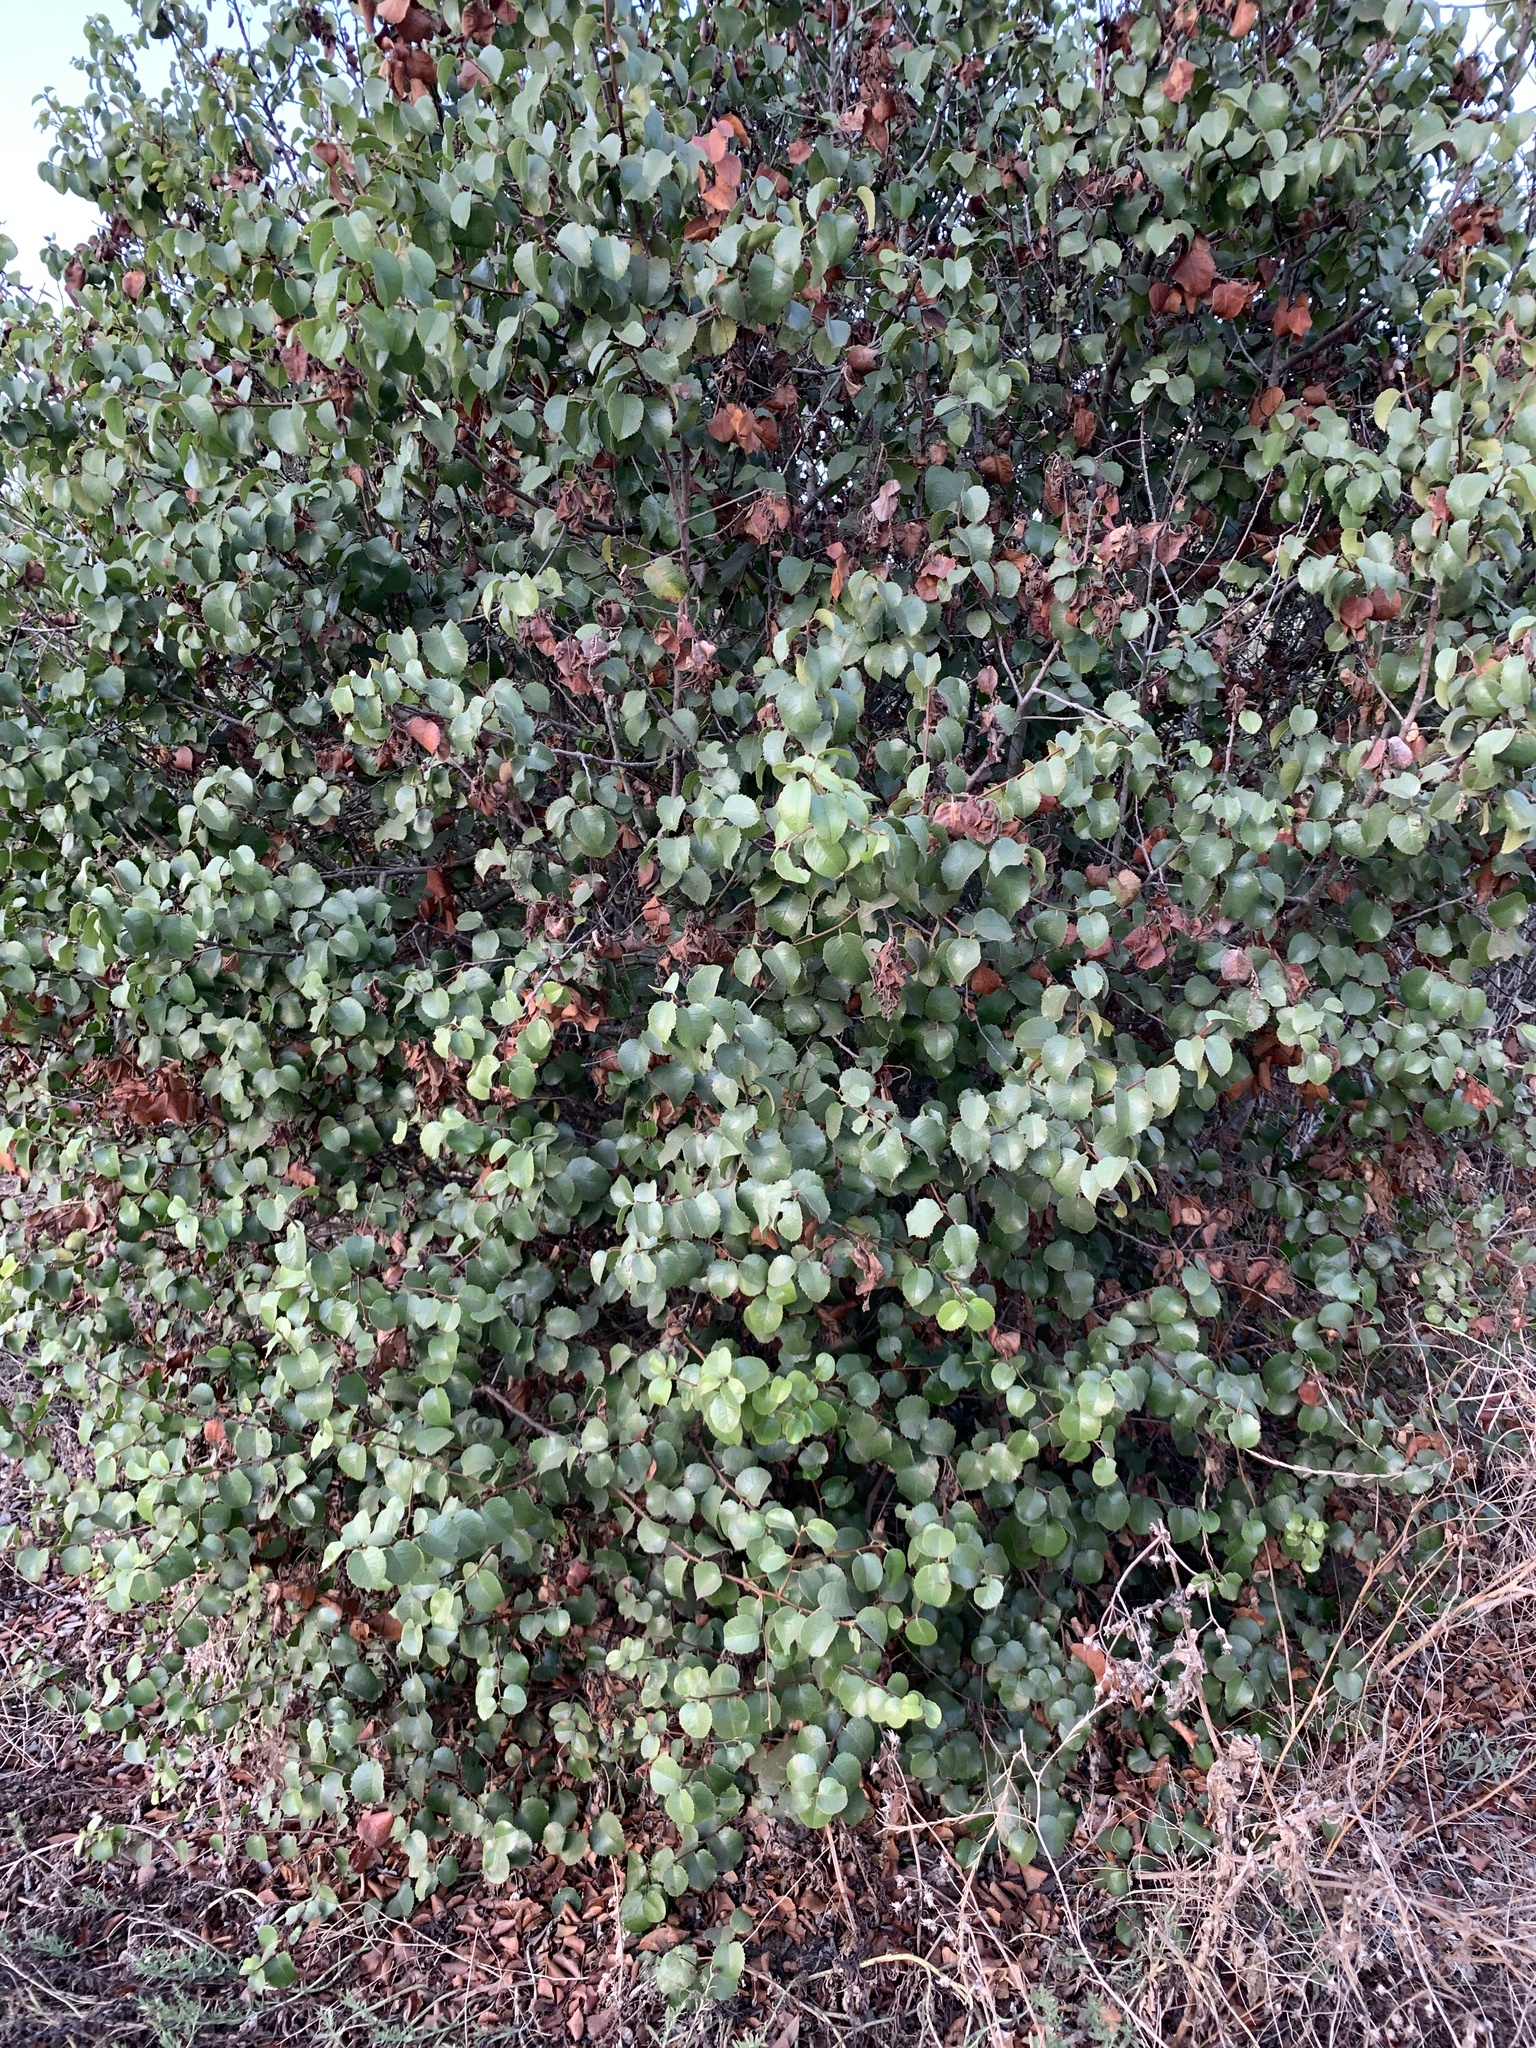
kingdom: Plantae
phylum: Tracheophyta
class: Magnoliopsida
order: Rosales
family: Rosaceae
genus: Prunus
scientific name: Prunus ilicifolia
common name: Hollyleaf cherry
